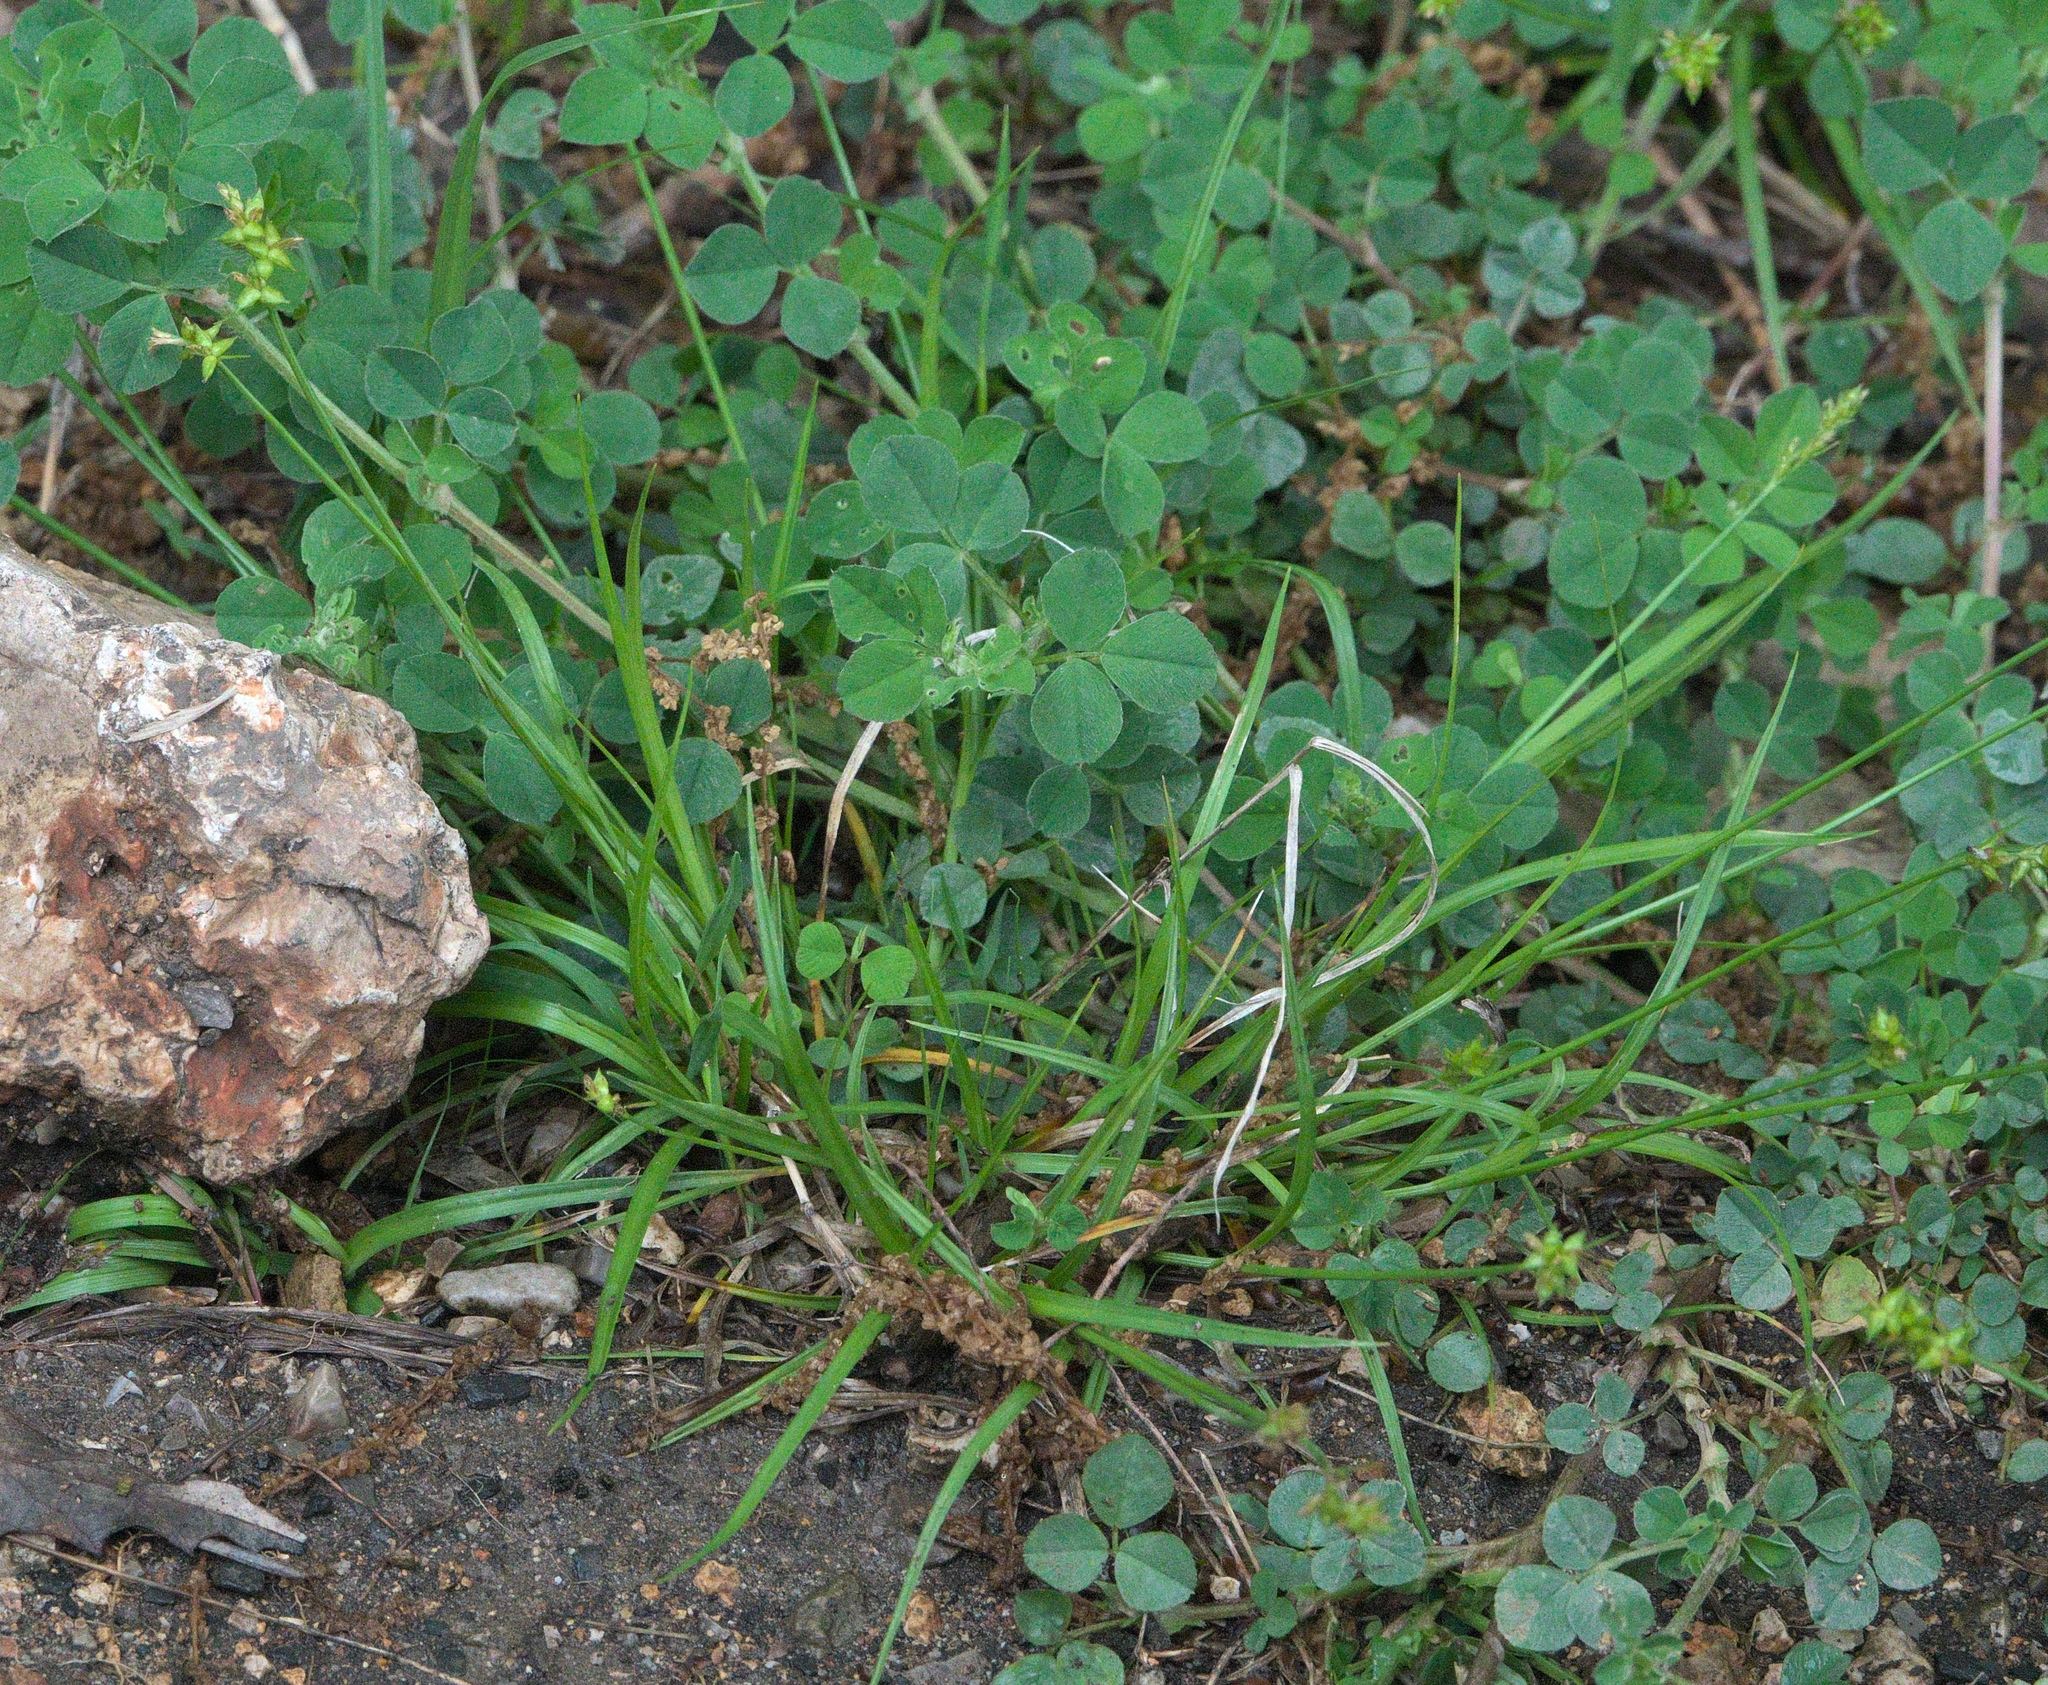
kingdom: Plantae
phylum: Tracheophyta
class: Liliopsida
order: Poales
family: Cyperaceae
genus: Carex
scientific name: Carex retroflexa
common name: Reflexed sedge
